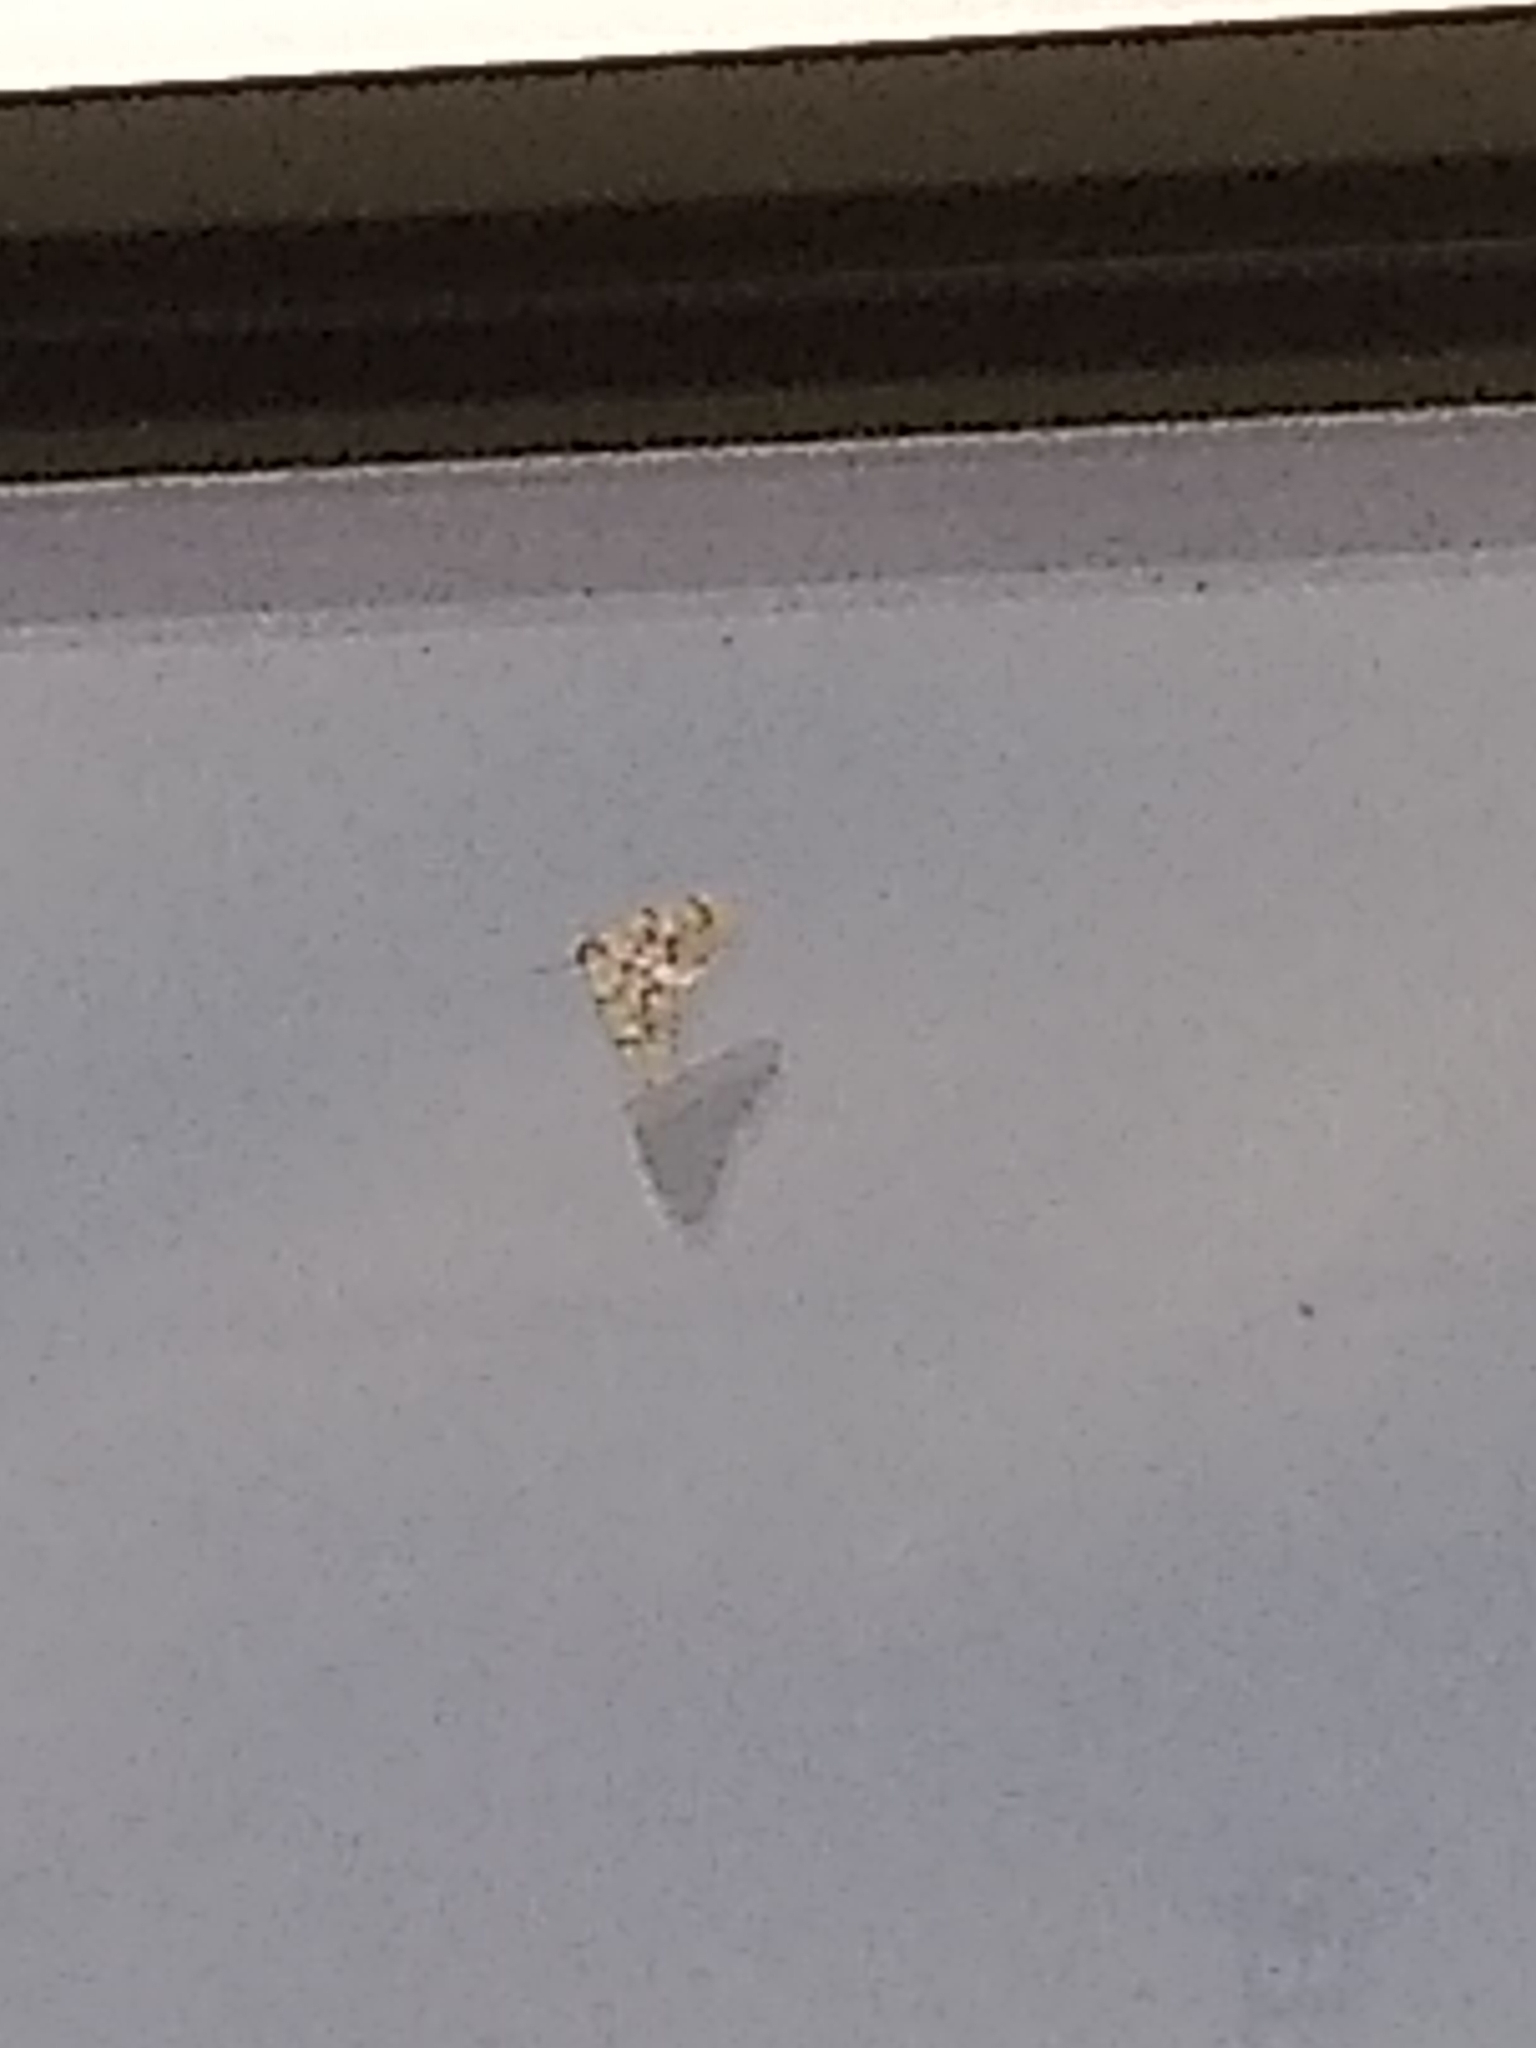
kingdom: Animalia
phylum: Arthropoda
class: Insecta
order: Lepidoptera
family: Geometridae
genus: Nepytia
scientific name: Nepytia freemani
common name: Western false hemlock looper
